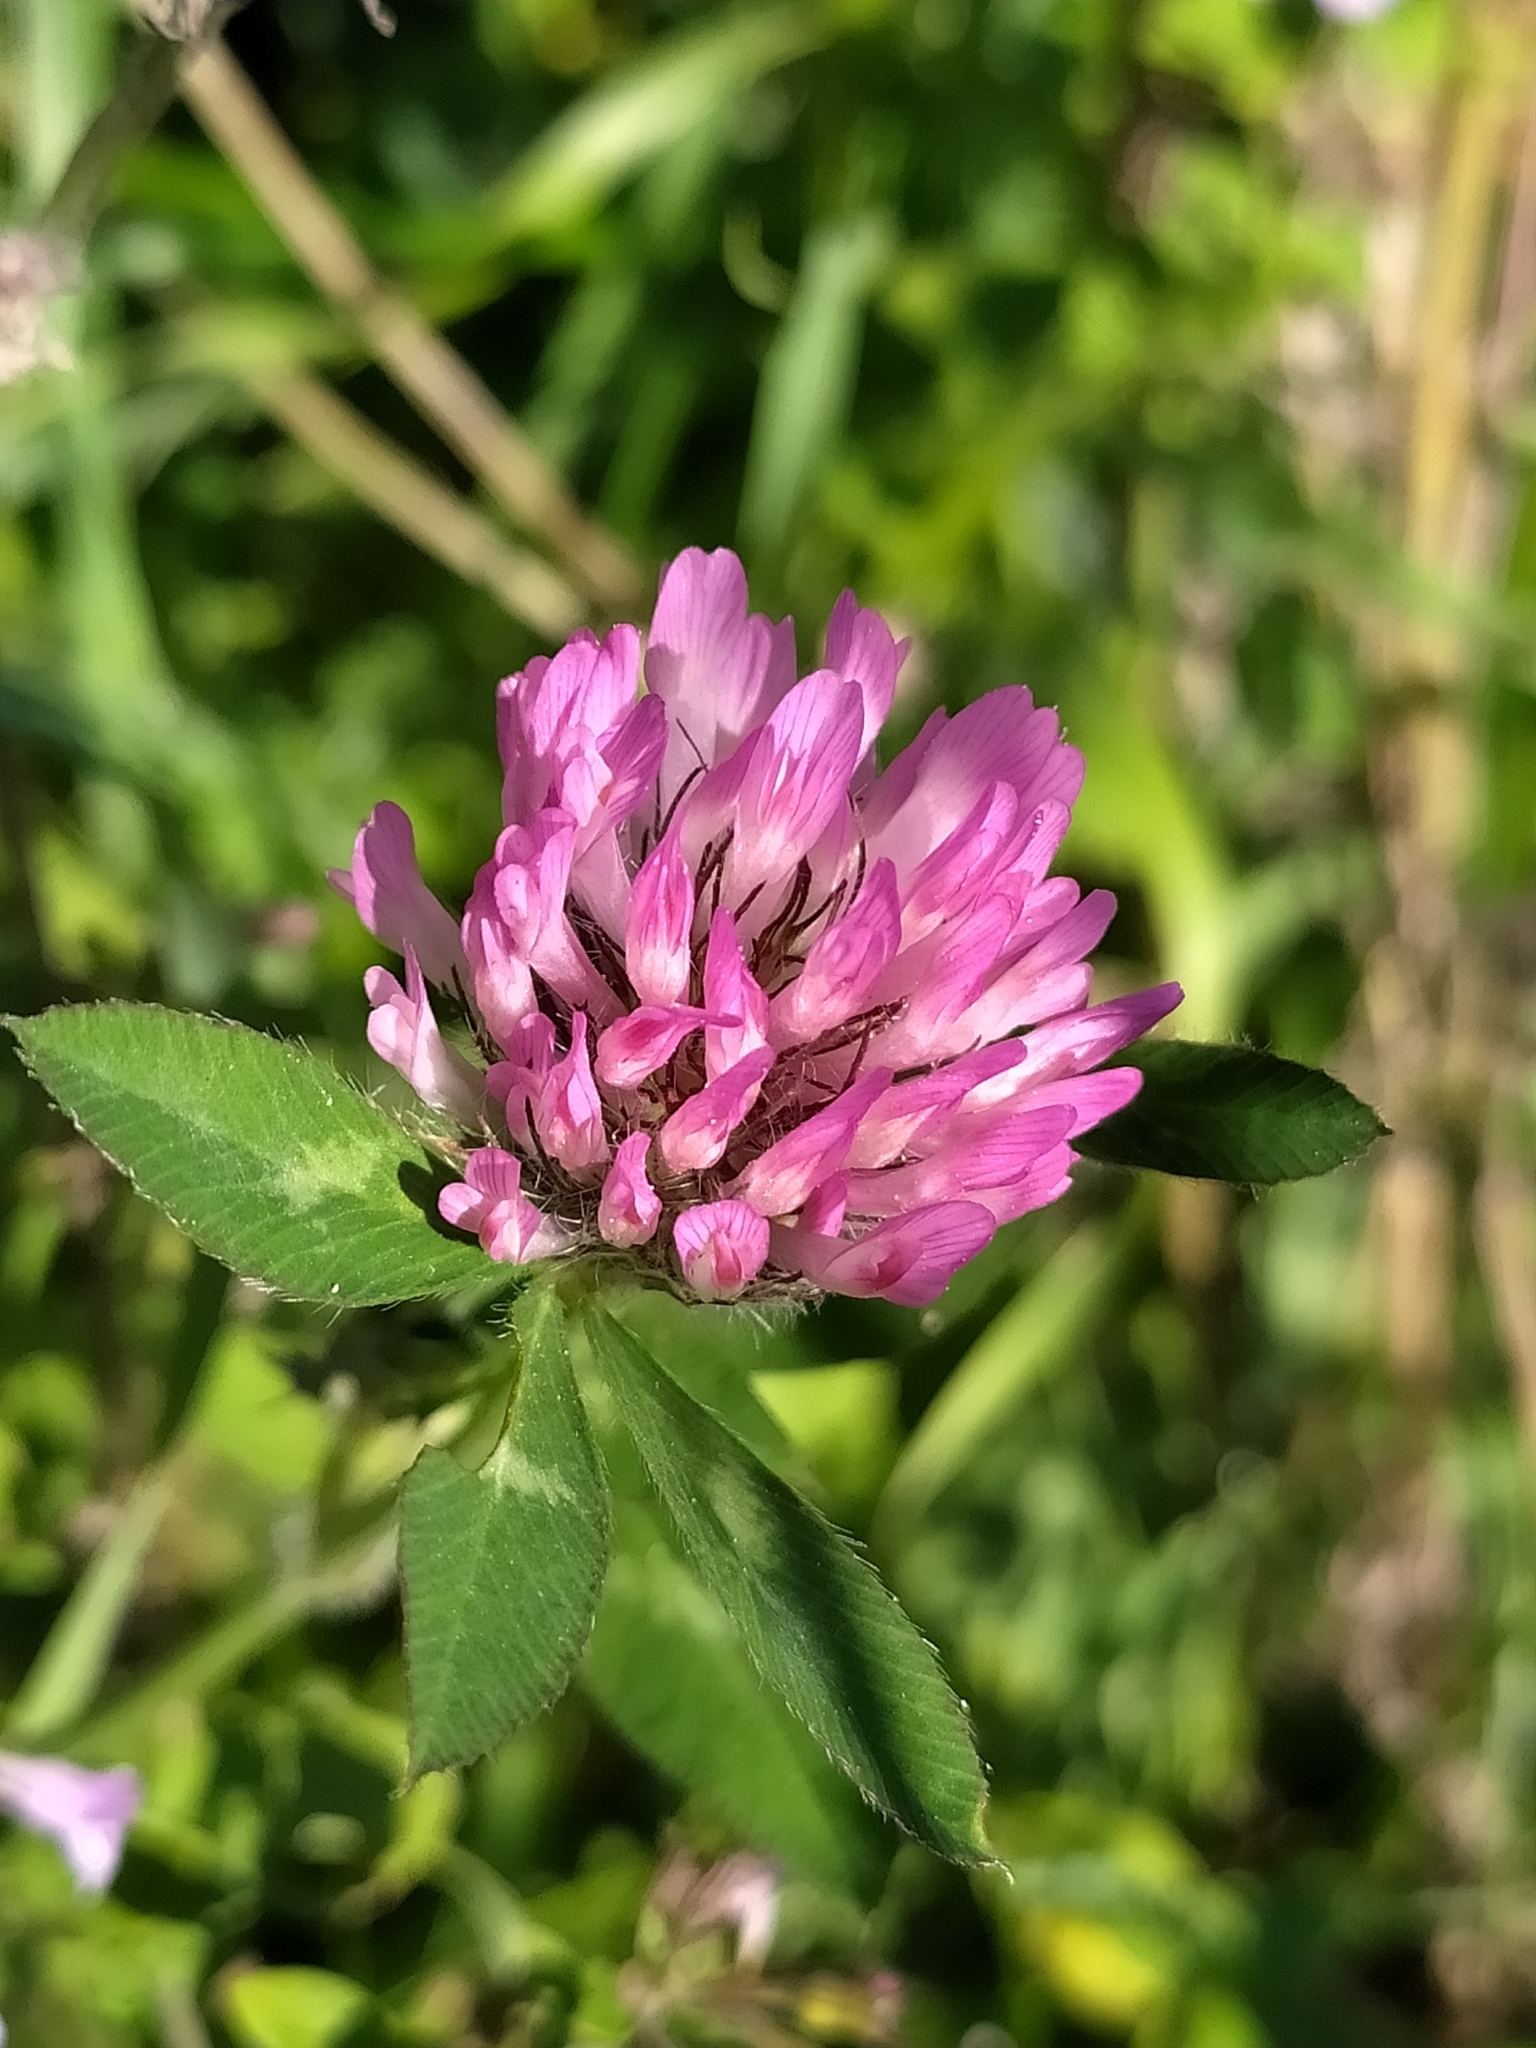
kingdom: Plantae
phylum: Tracheophyta
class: Magnoliopsida
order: Fabales
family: Fabaceae
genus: Trifolium
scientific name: Trifolium pratense
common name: Red clover
